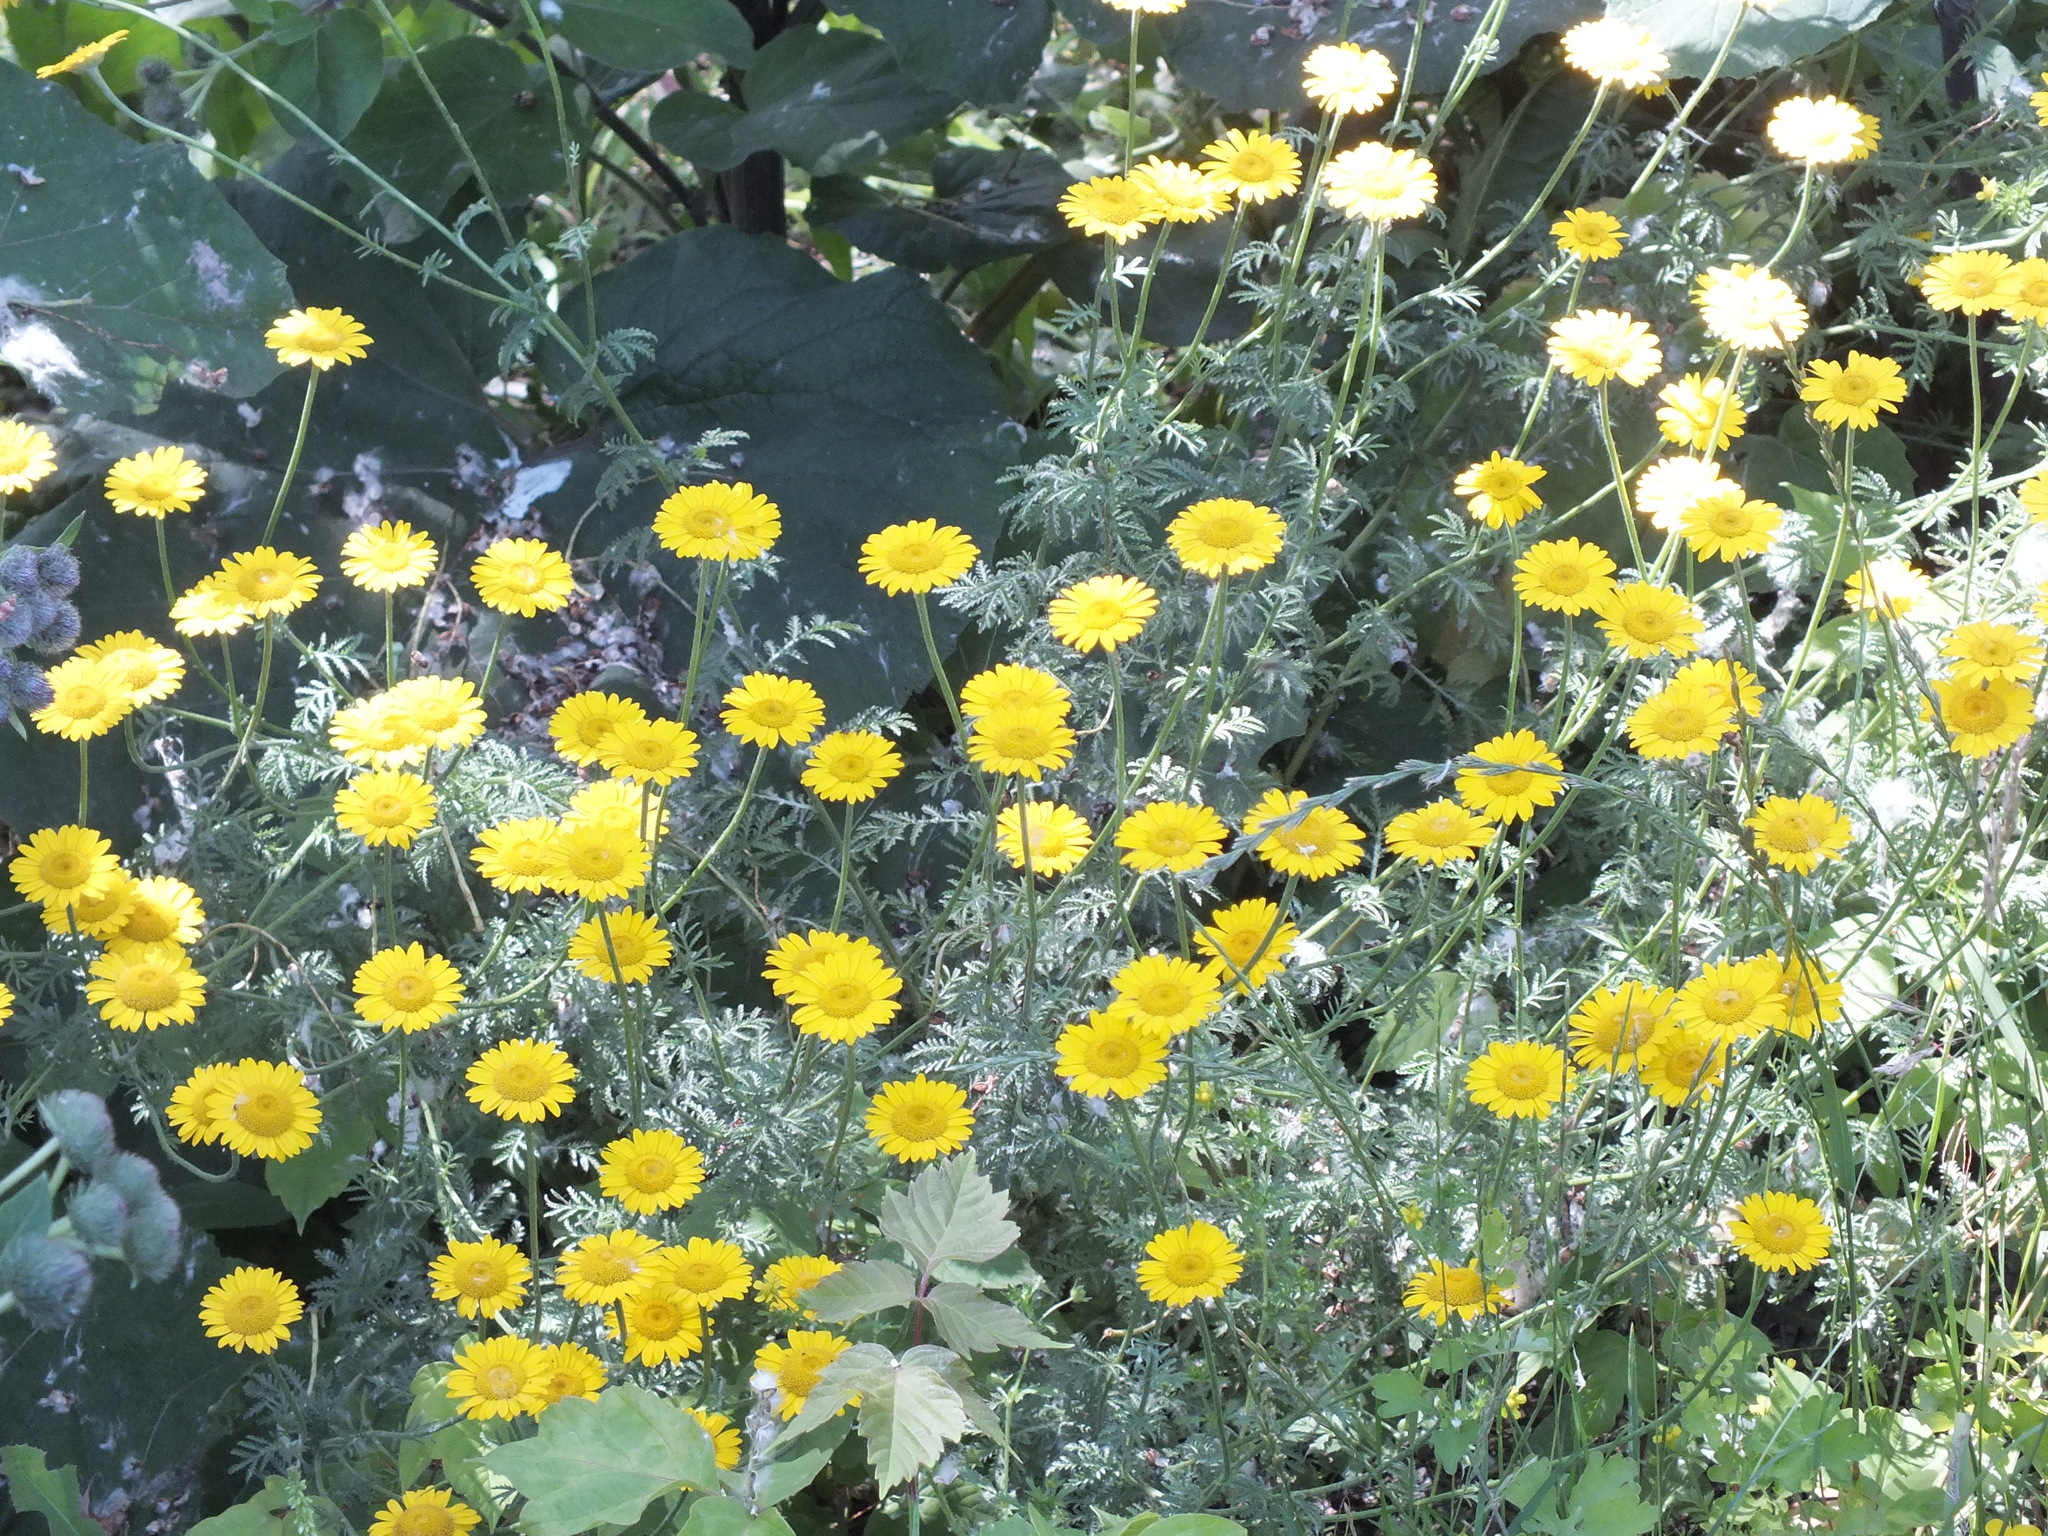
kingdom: Plantae
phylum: Tracheophyta
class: Magnoliopsida
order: Asterales
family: Asteraceae
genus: Cota
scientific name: Cota tinctoria
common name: Golden chamomile
